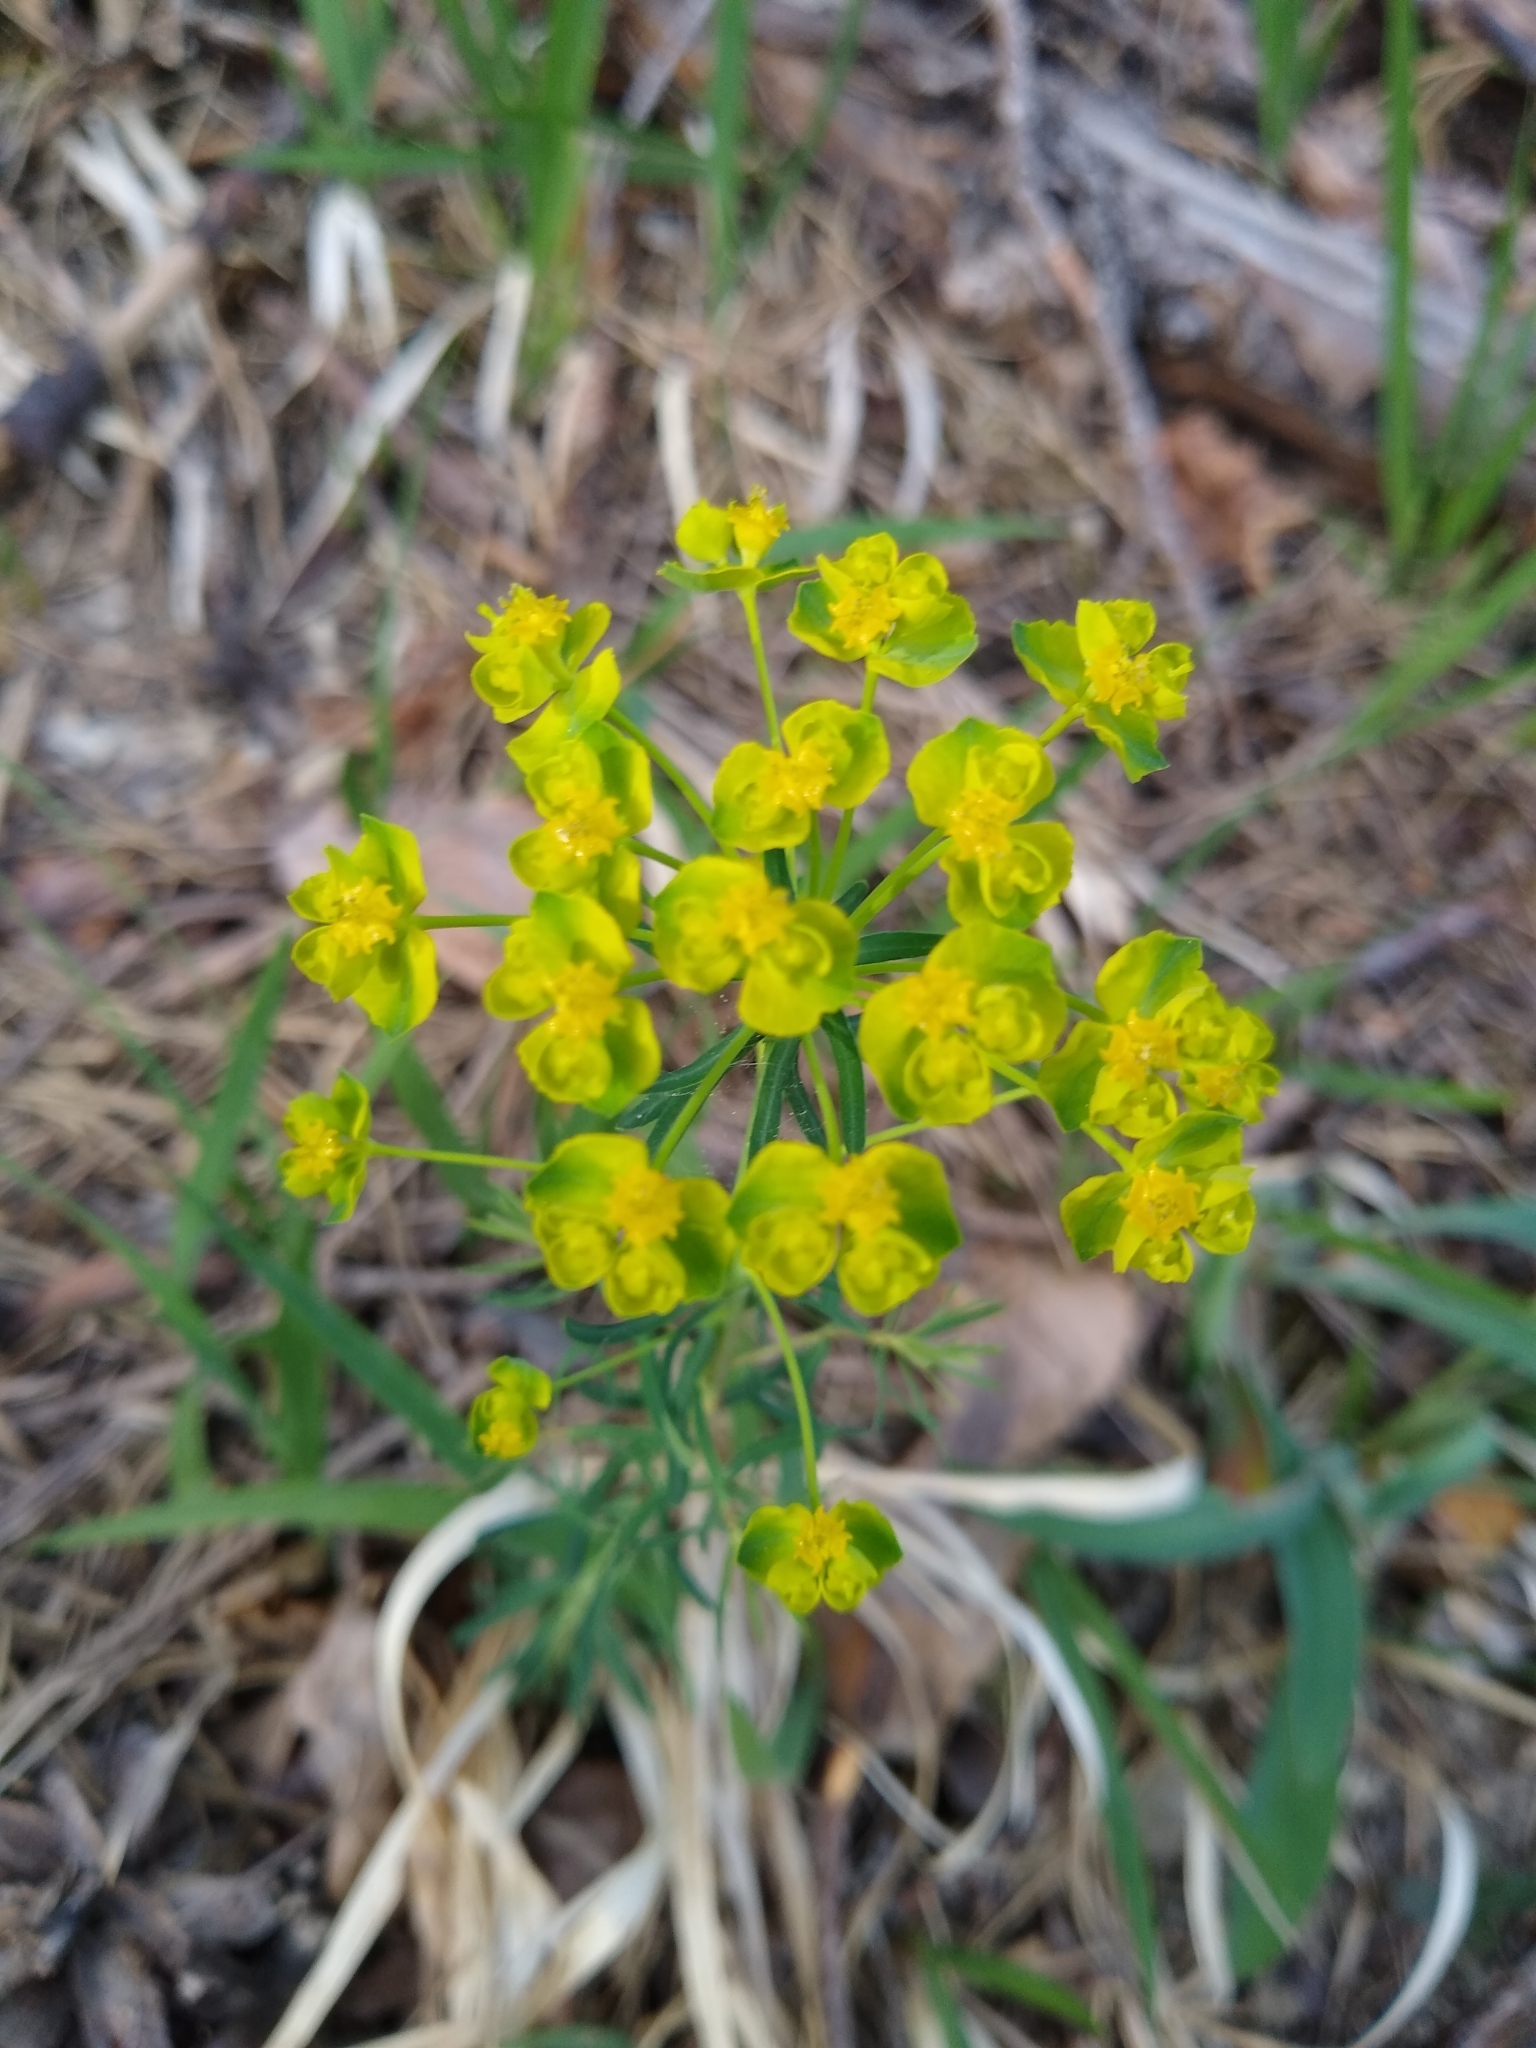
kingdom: Plantae
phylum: Tracheophyta
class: Magnoliopsida
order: Malpighiales
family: Euphorbiaceae
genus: Euphorbia
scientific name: Euphorbia cyparissias
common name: Cypress spurge
